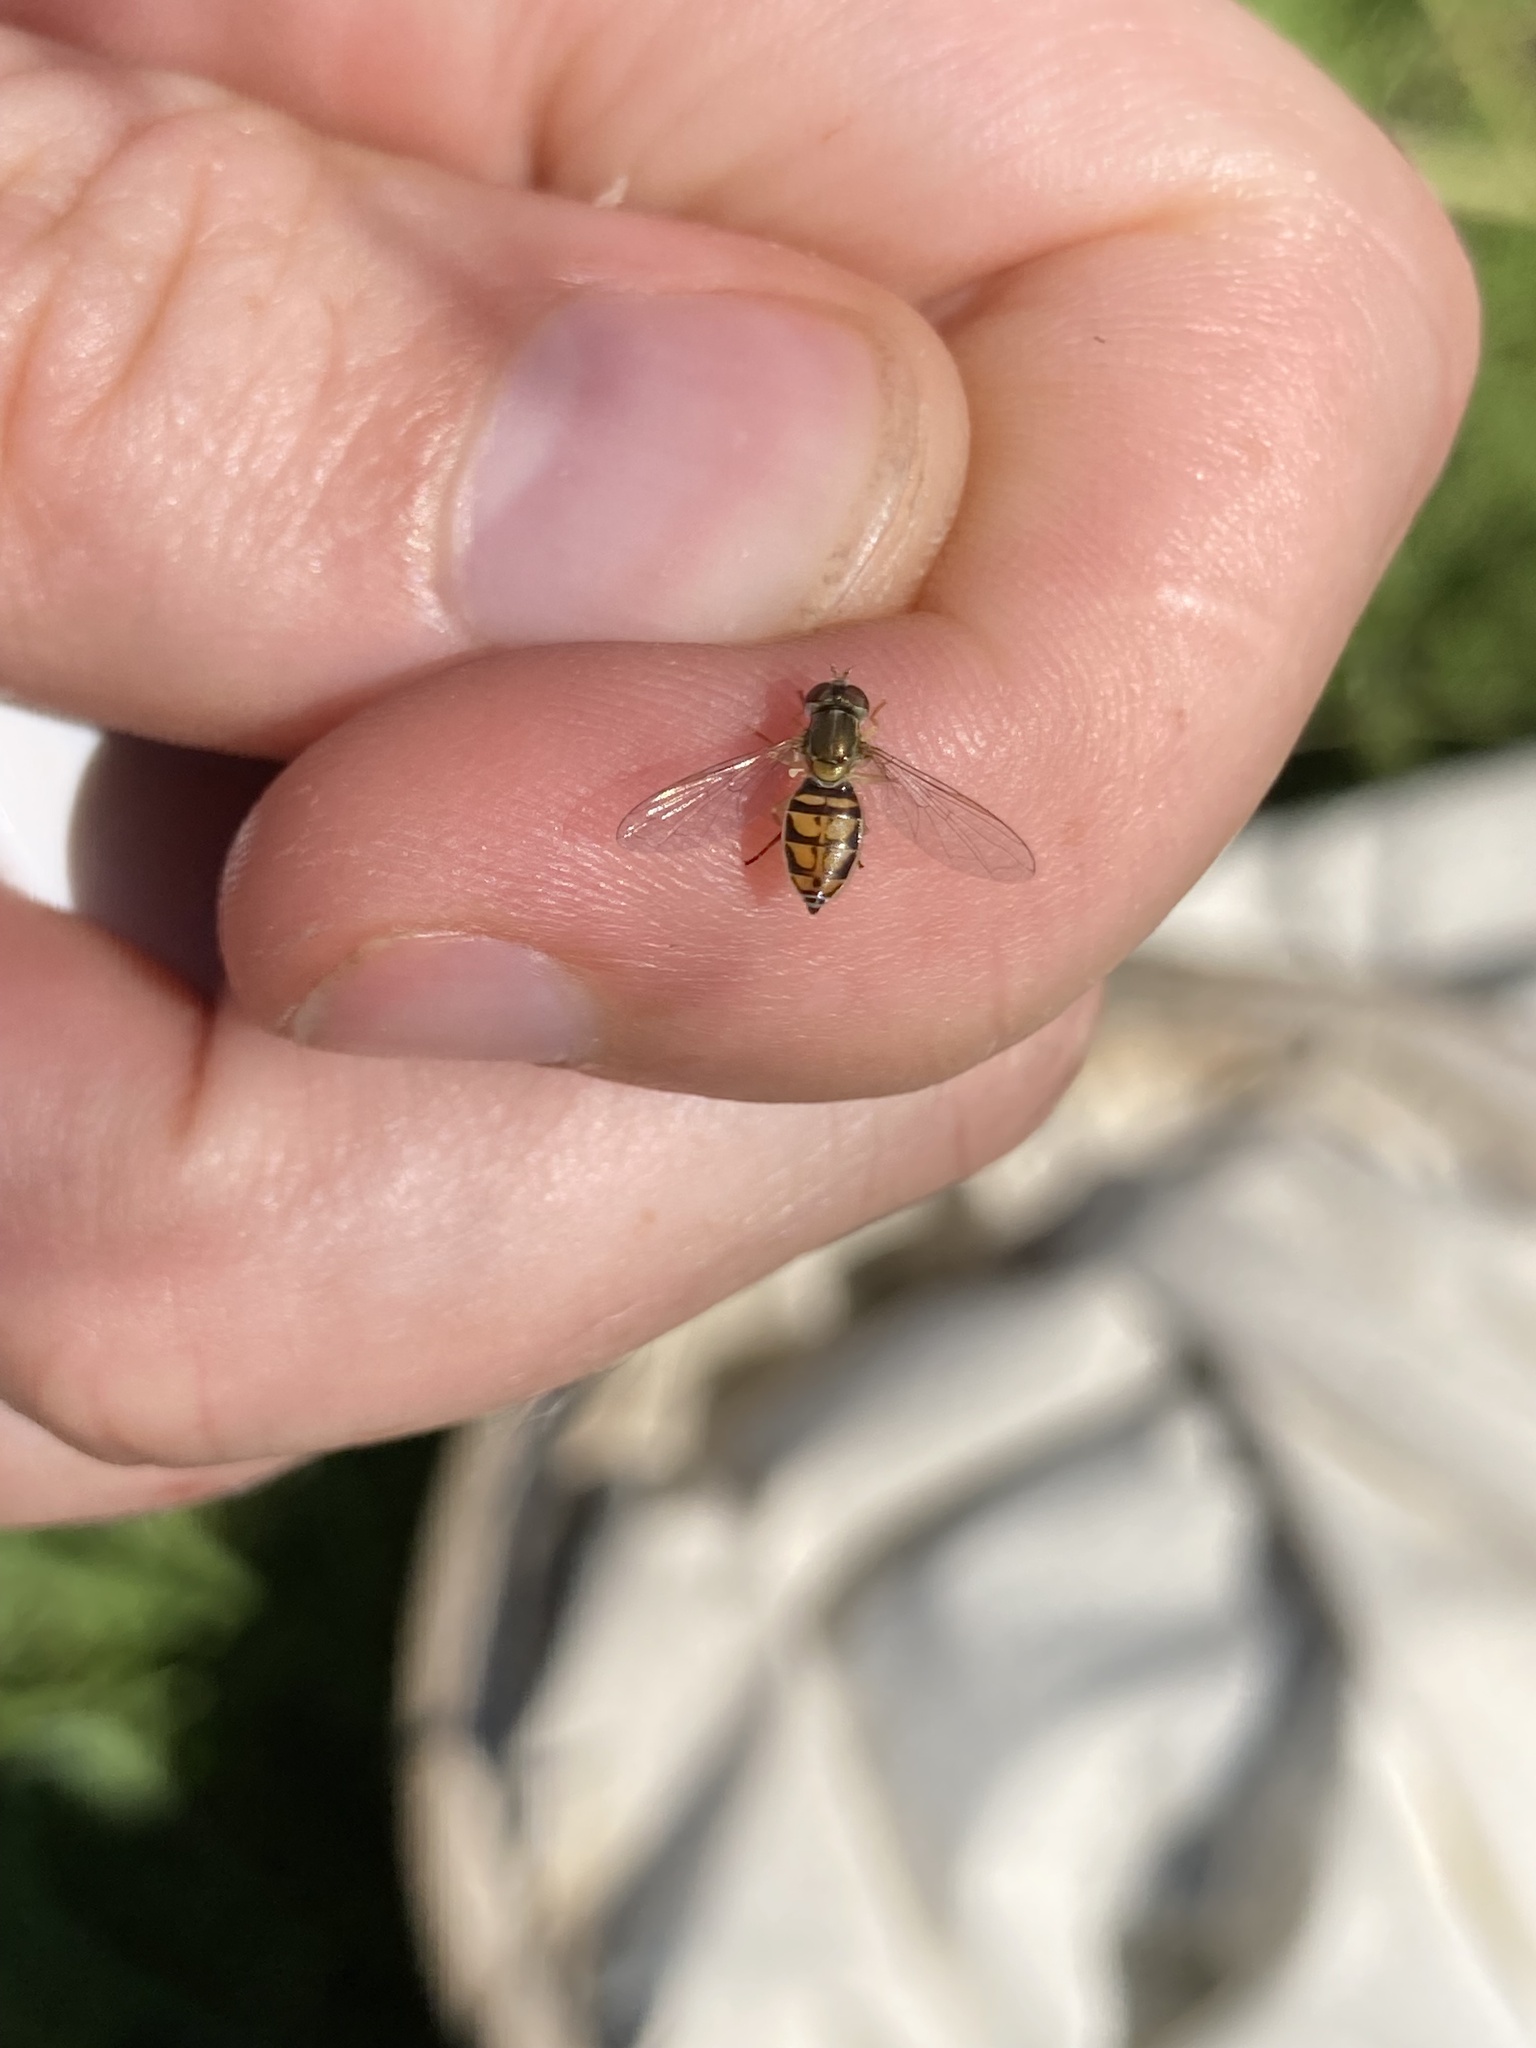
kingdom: Animalia
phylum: Arthropoda
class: Insecta
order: Diptera
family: Syrphidae
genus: Toxomerus
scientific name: Toxomerus marginatus
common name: Syrphid fly
